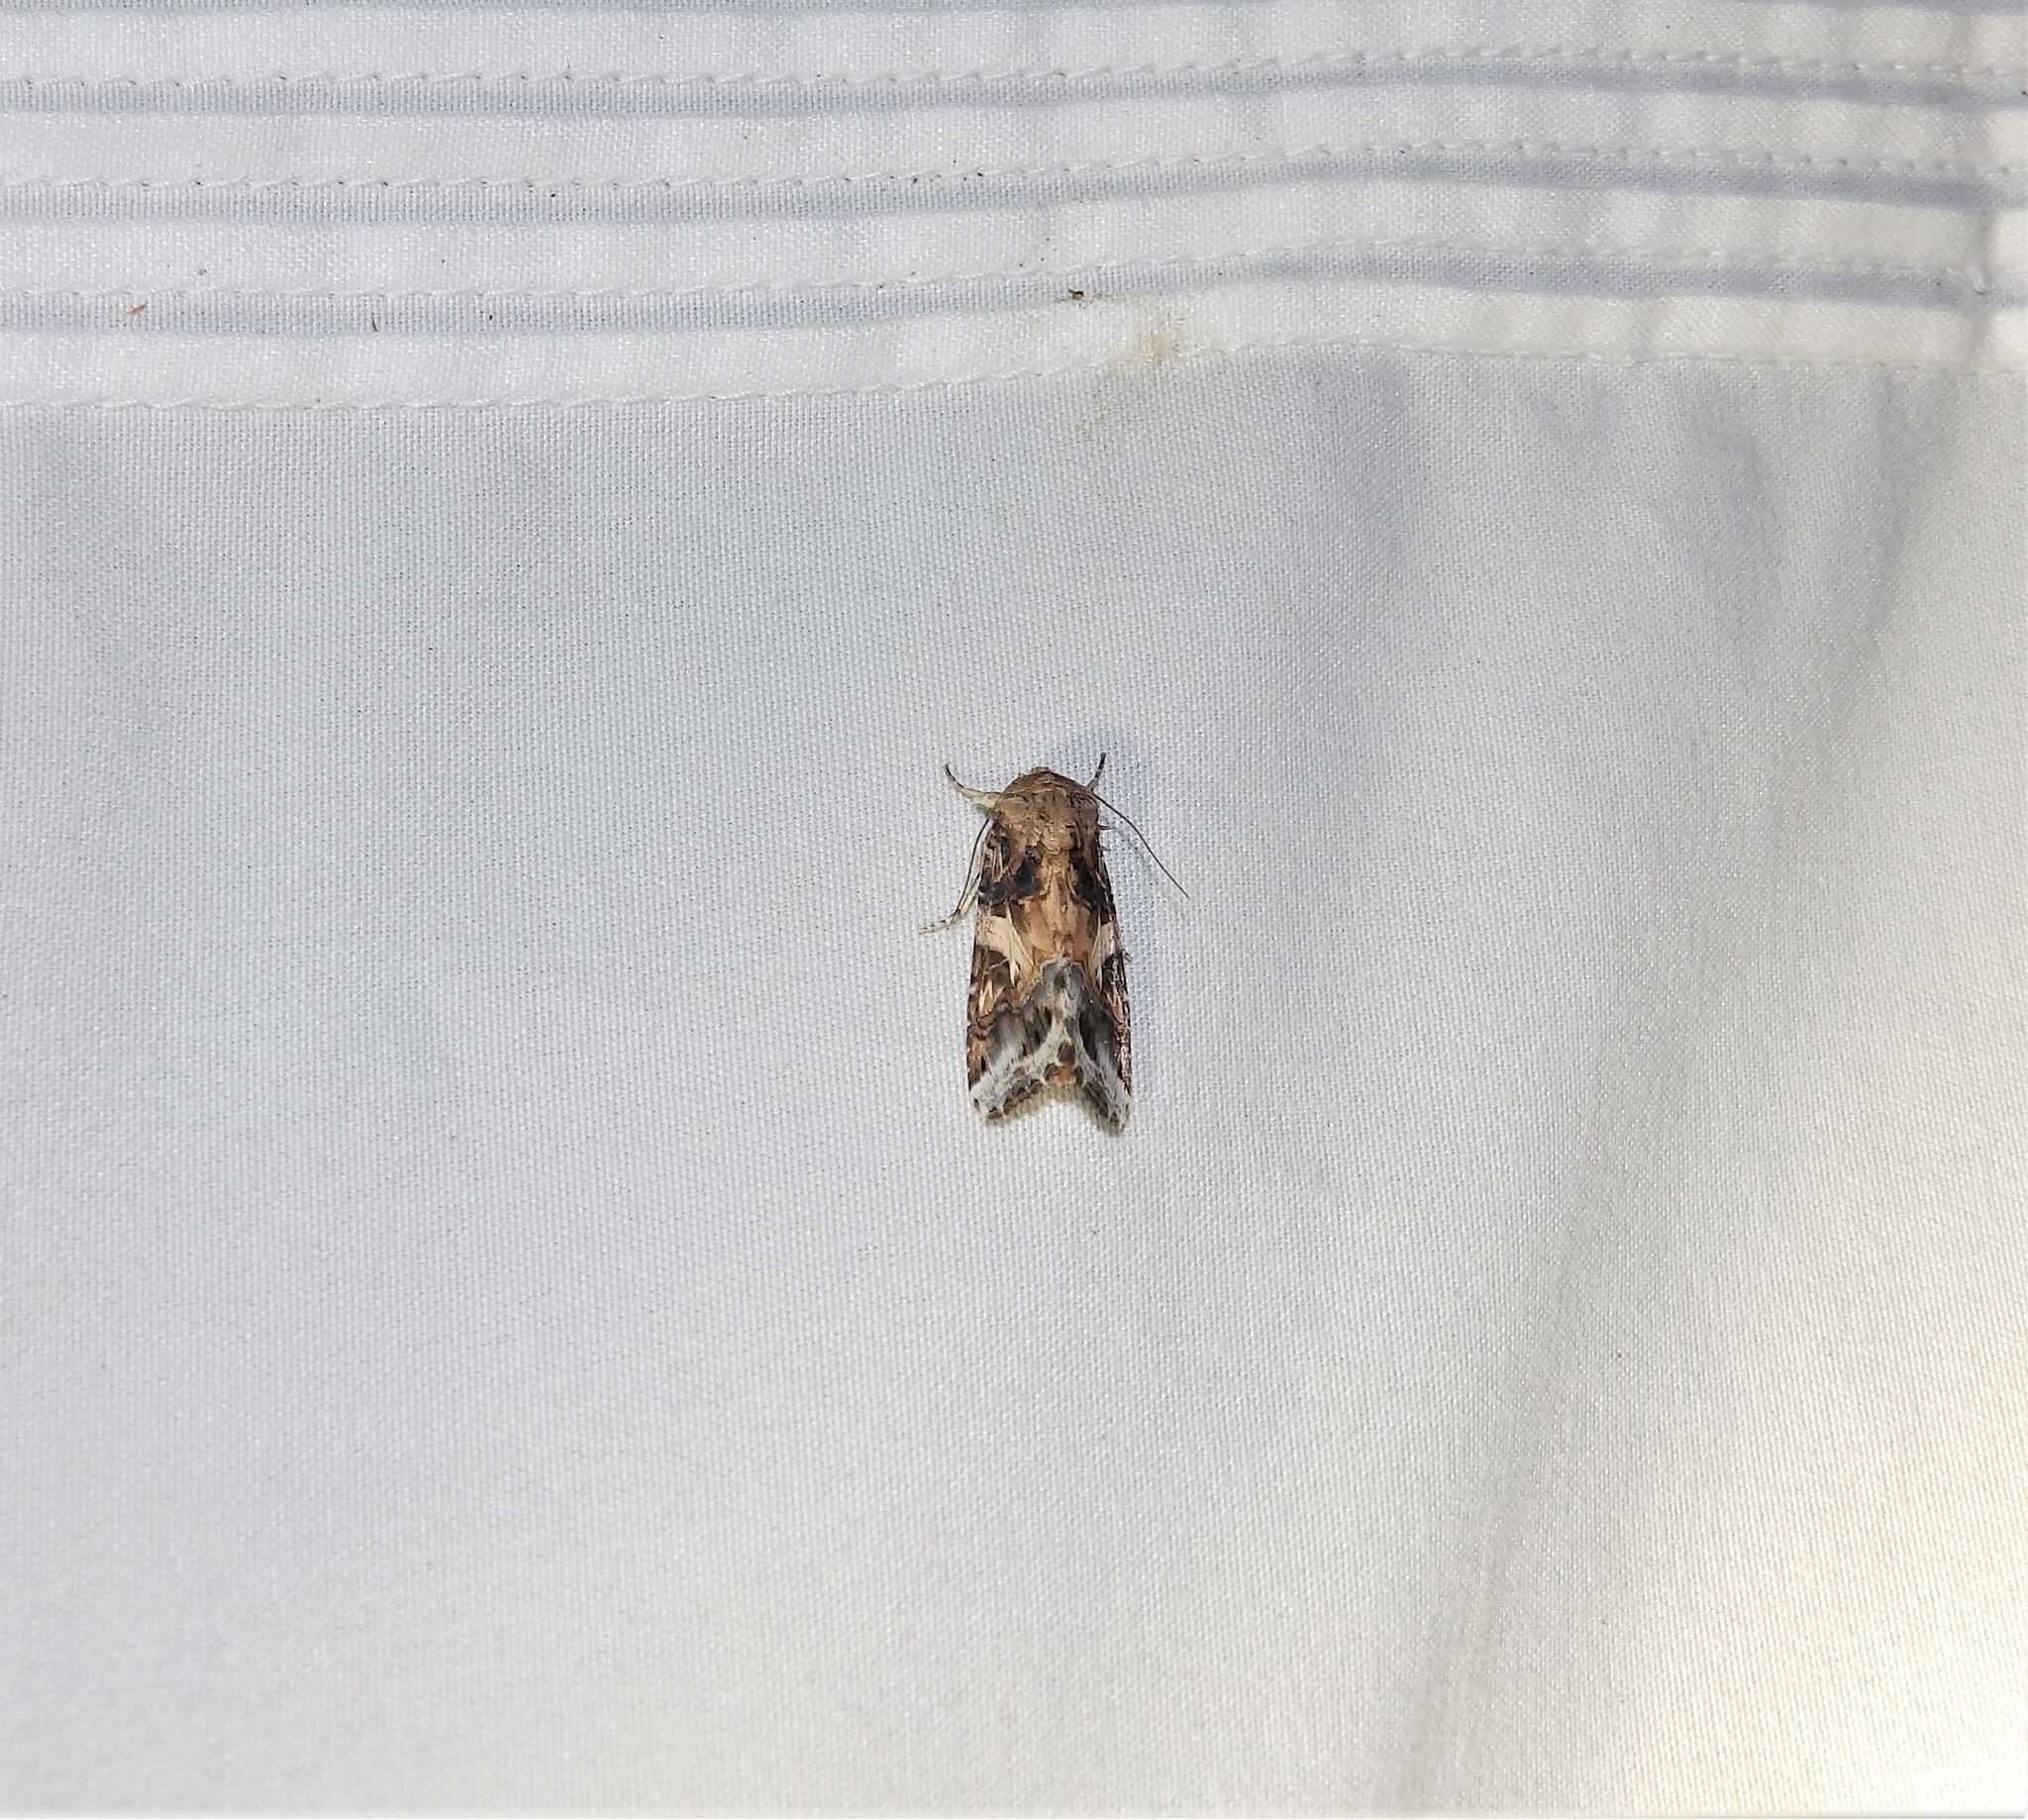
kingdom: Animalia
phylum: Arthropoda
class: Insecta
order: Lepidoptera
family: Noctuidae
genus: Spodoptera
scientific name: Spodoptera ornithogalli
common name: Yellow-striped armyworm
